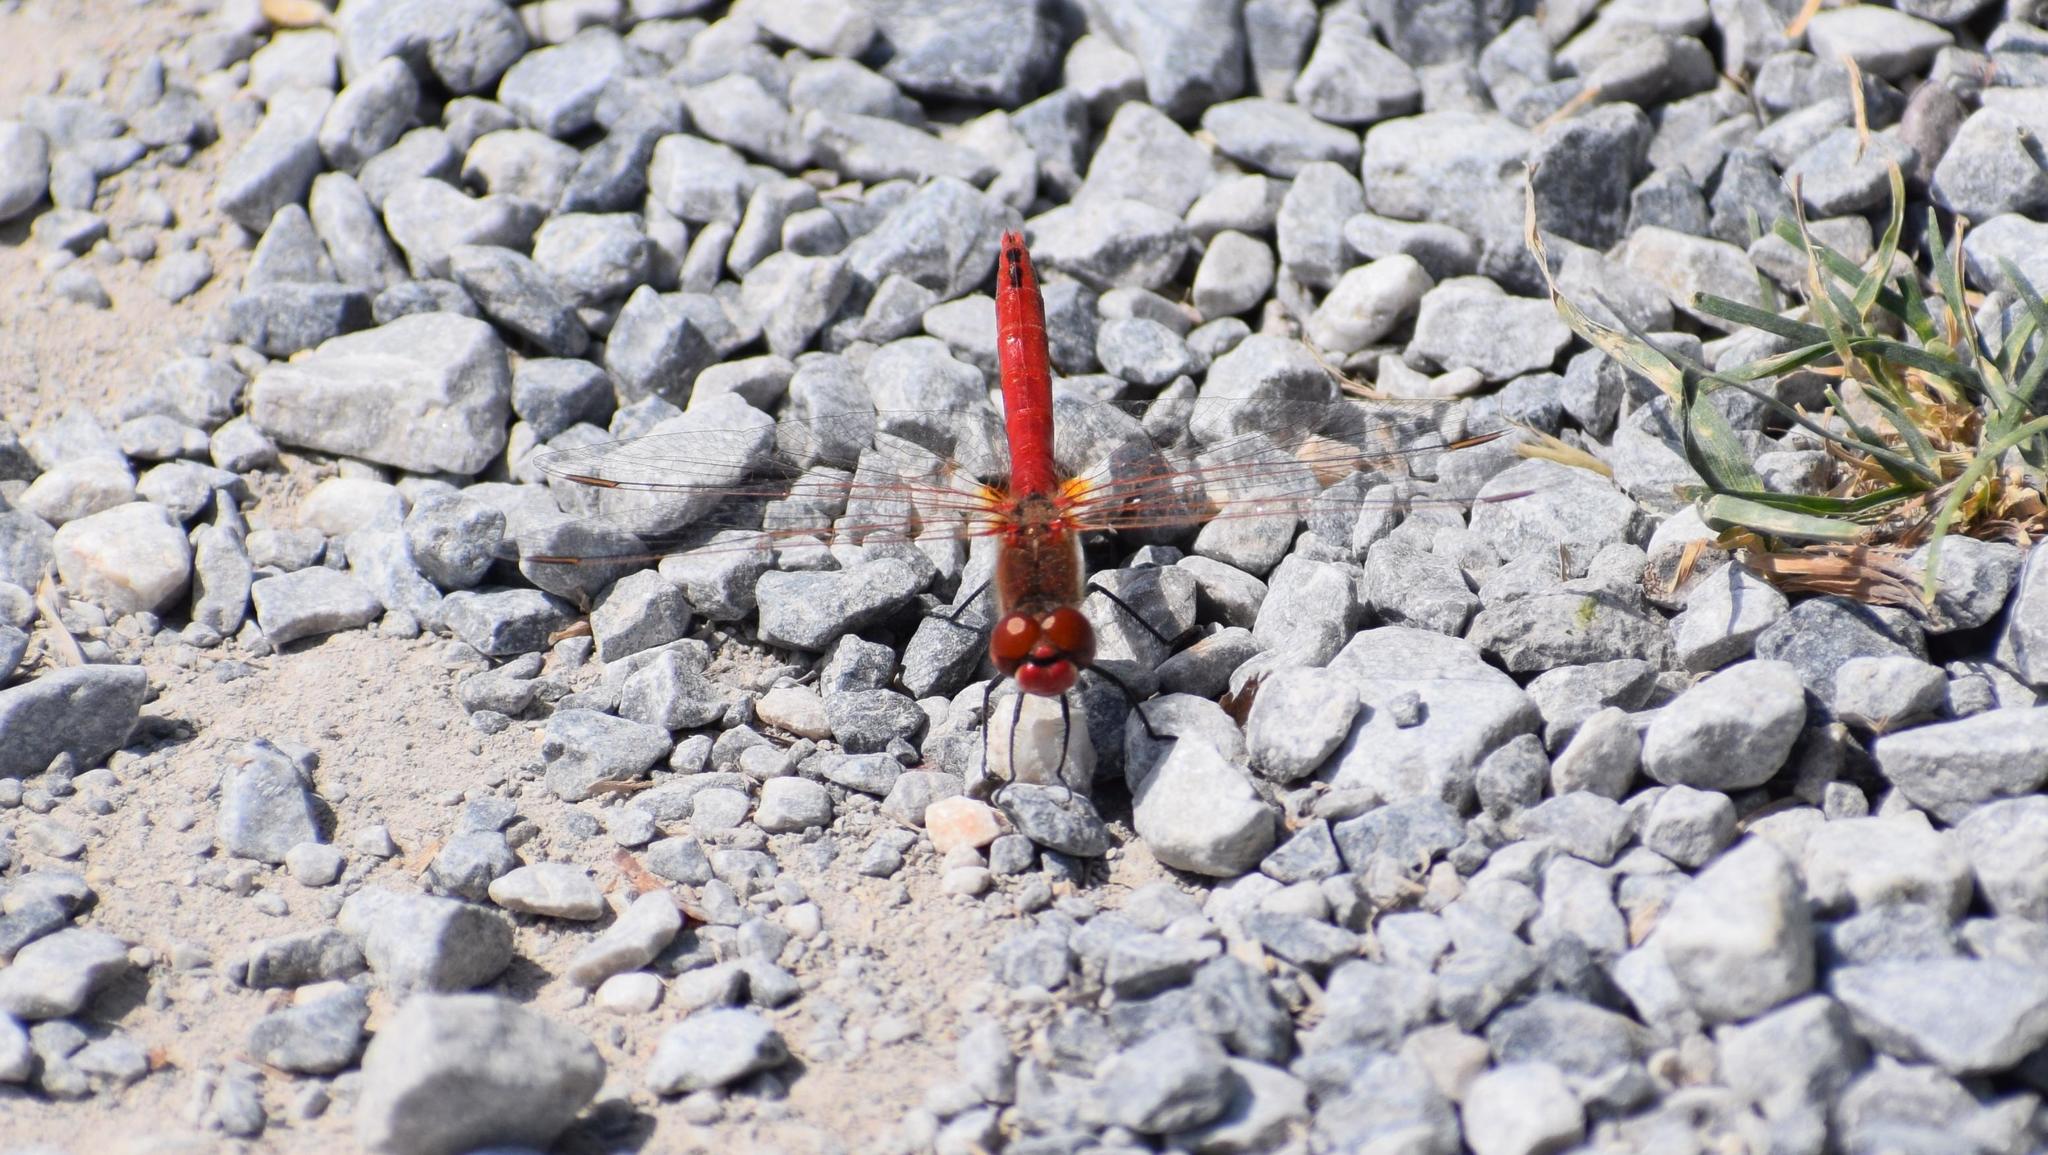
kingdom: Animalia
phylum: Arthropoda
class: Insecta
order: Odonata
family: Libellulidae
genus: Sympetrum
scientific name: Sympetrum fonscolombii
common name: Red-veined darter
